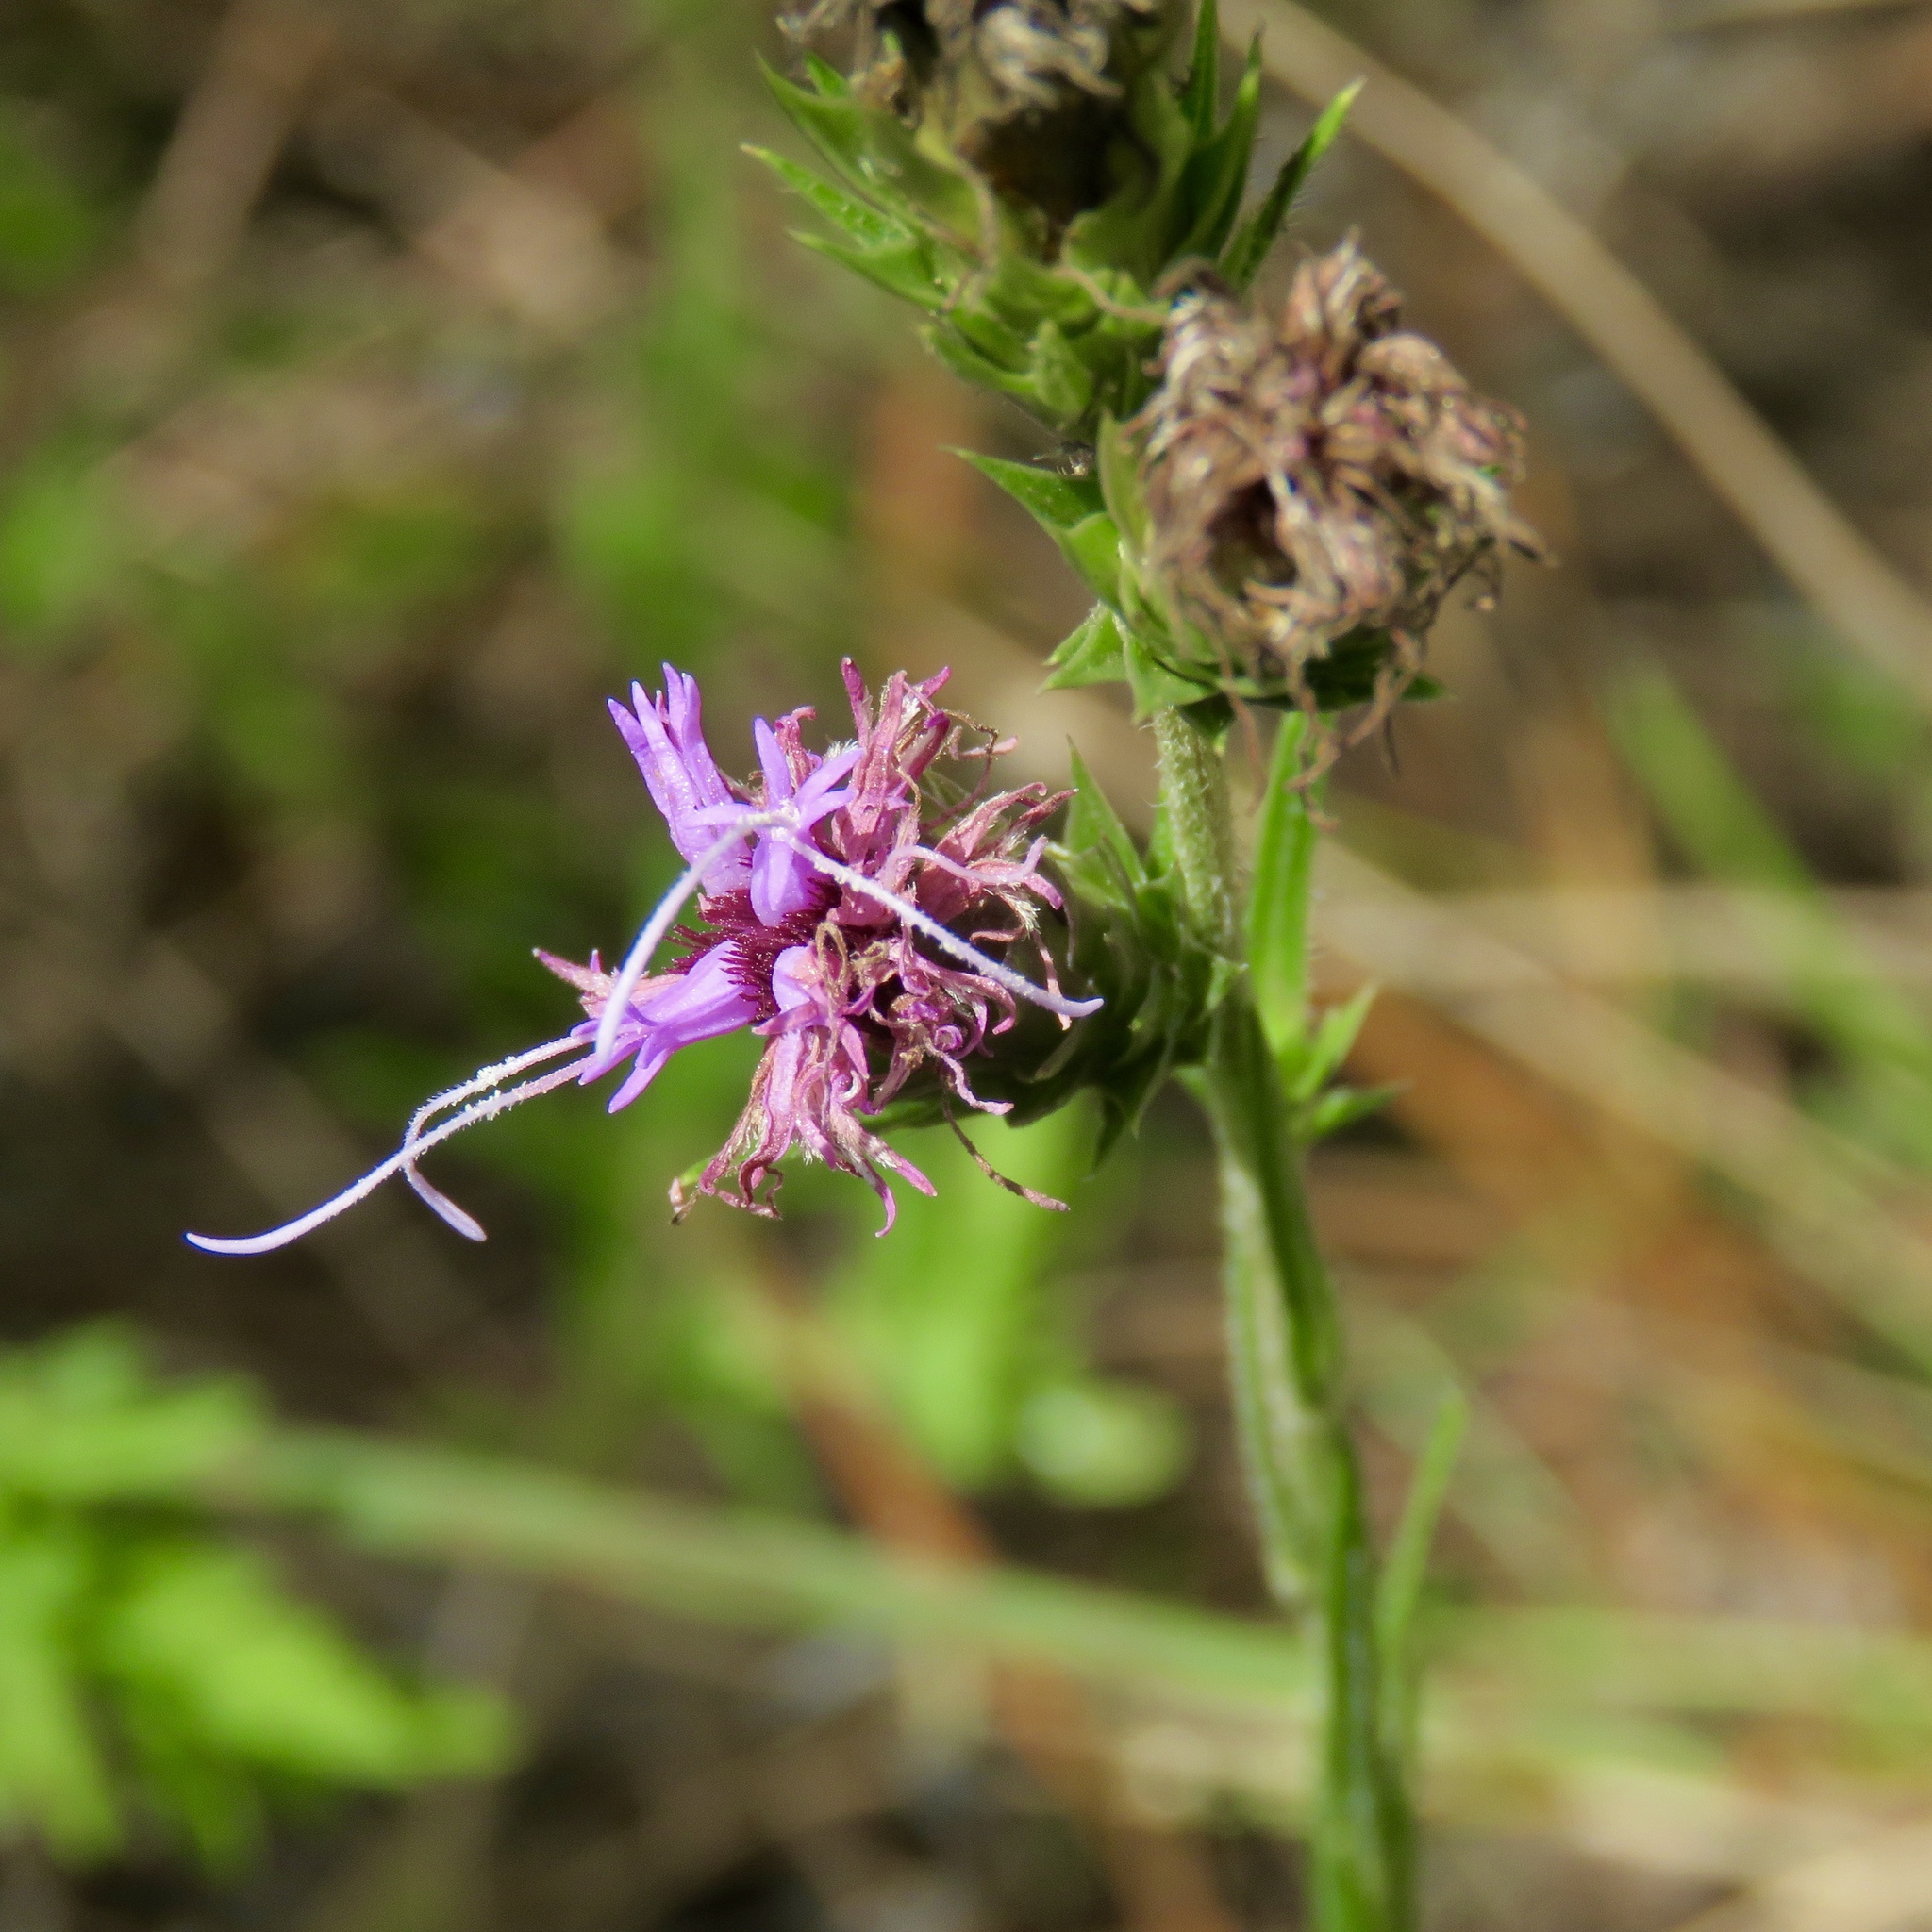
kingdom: Plantae
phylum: Tracheophyta
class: Magnoliopsida
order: Asterales
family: Asteraceae
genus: Liatris
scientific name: Liatris tenuis
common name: Shinner's gayfeather
